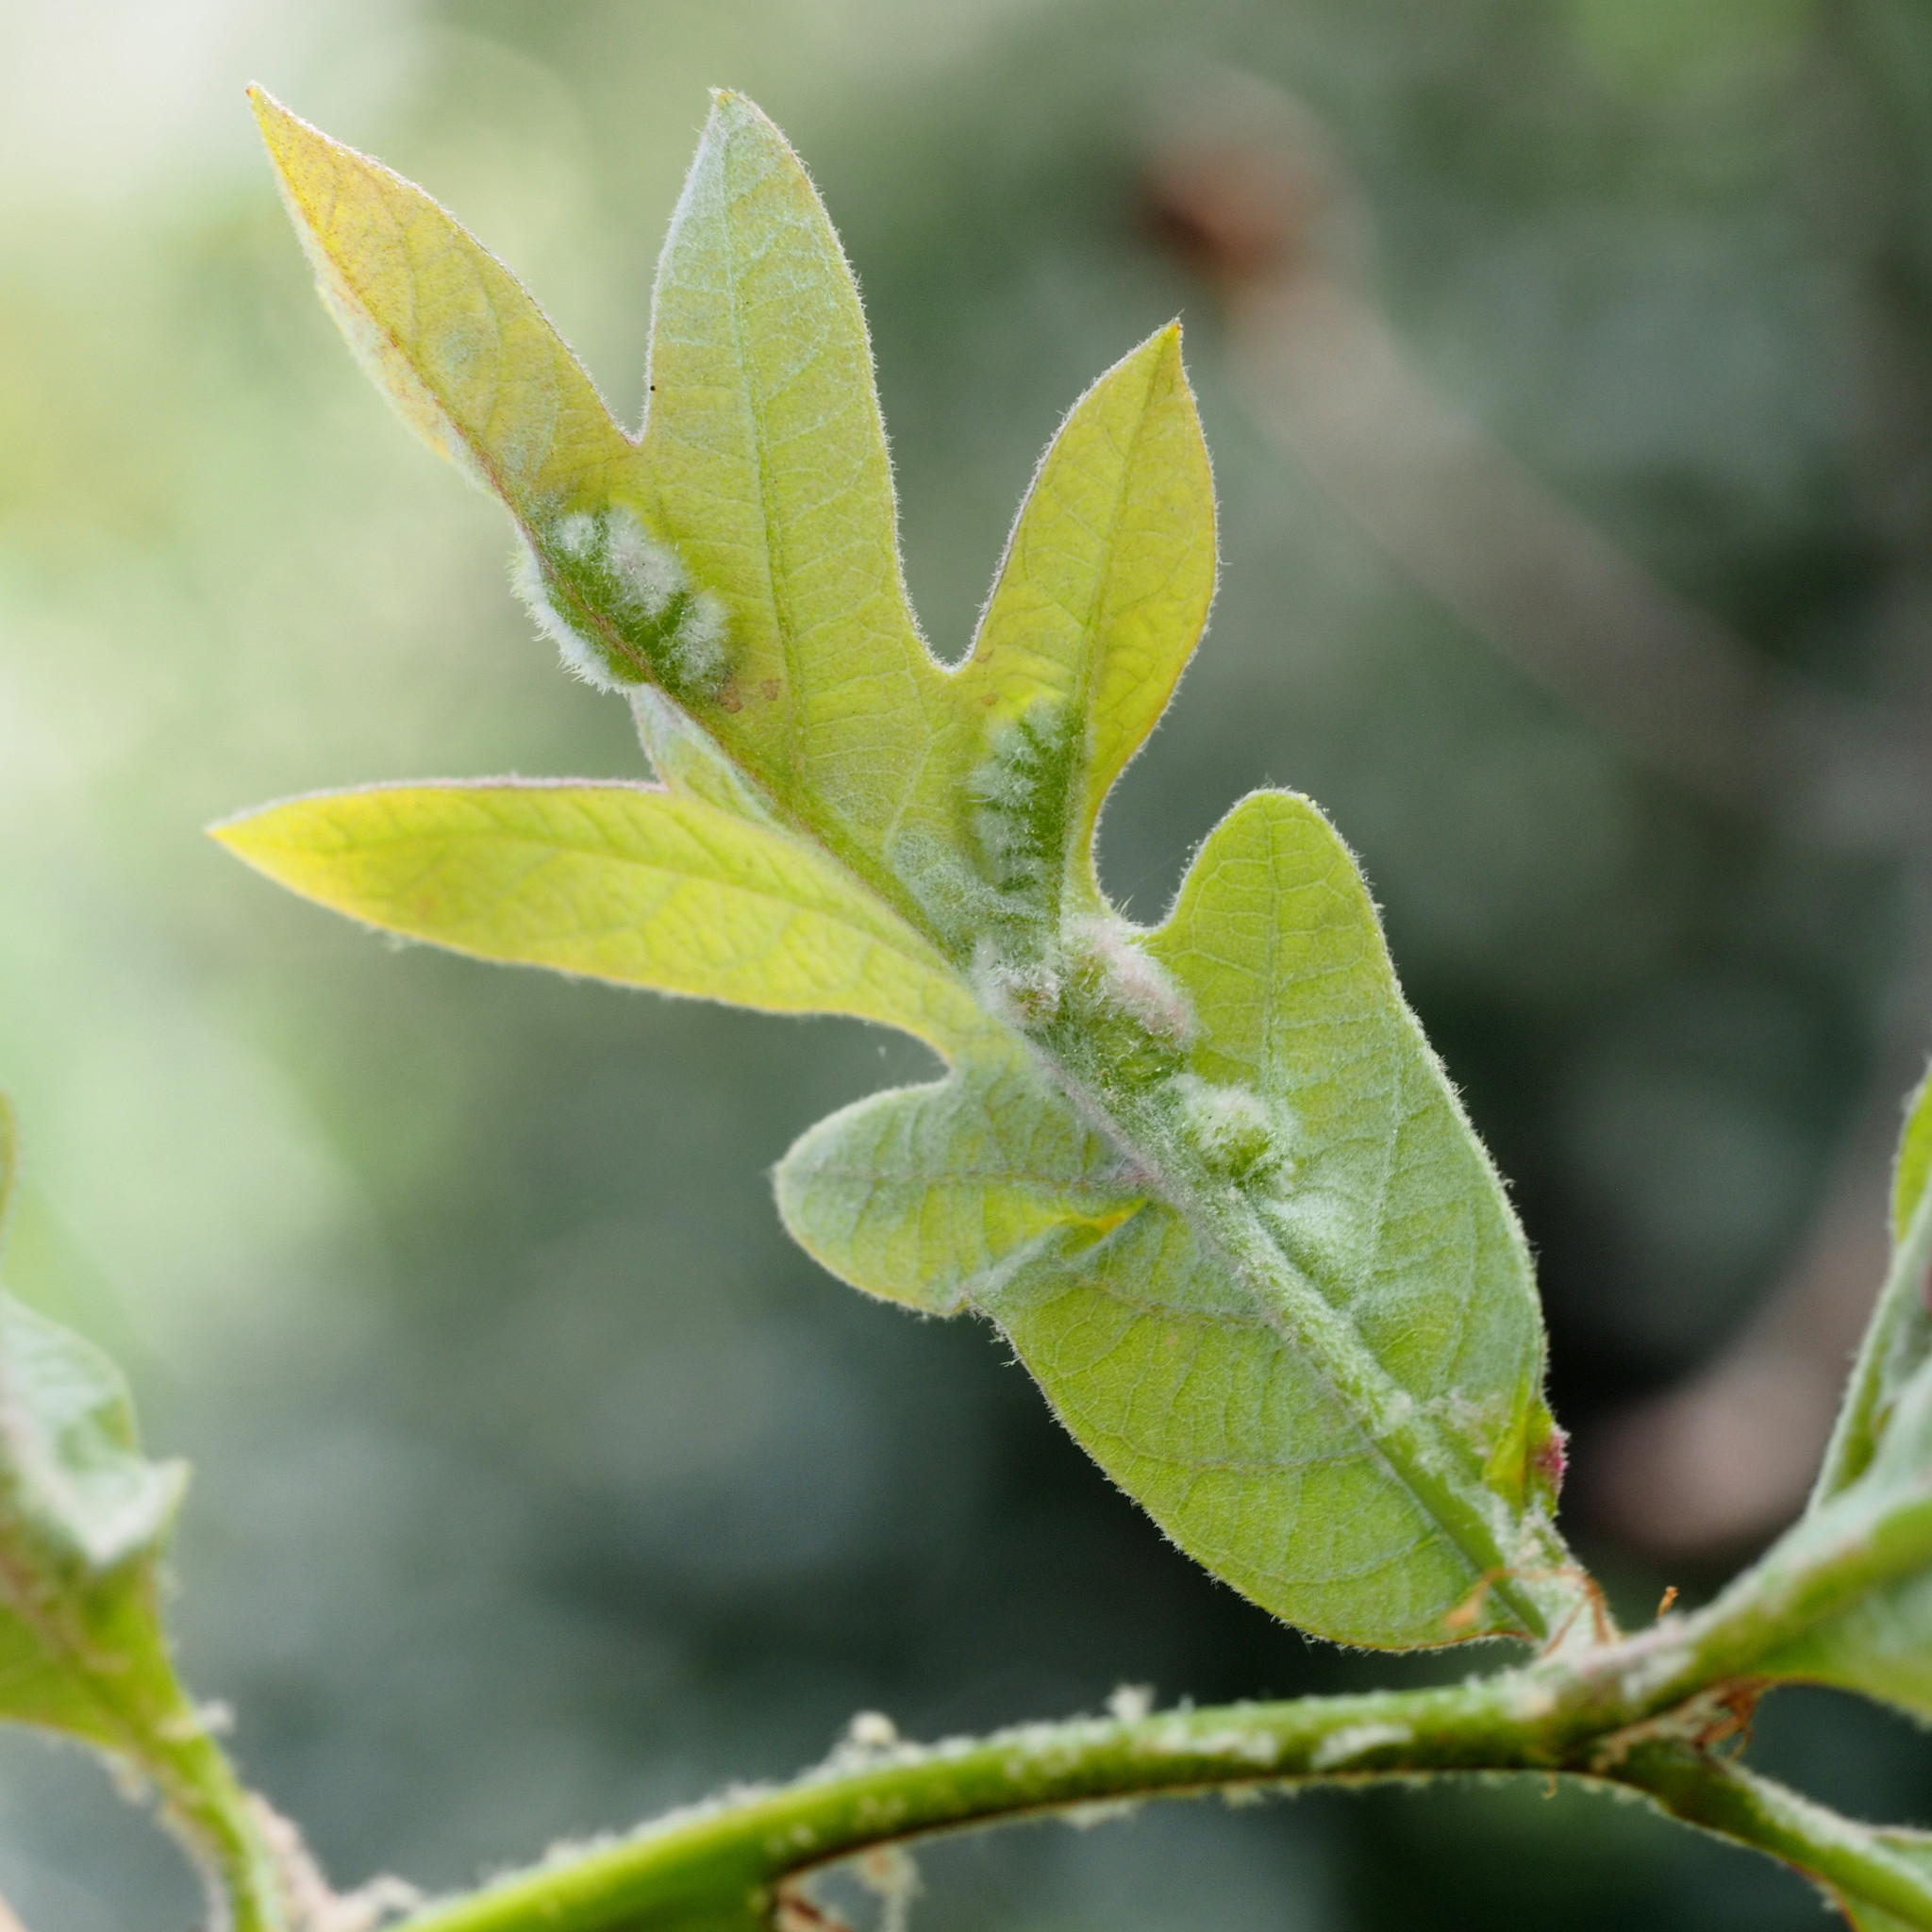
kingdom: Animalia
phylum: Arthropoda
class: Insecta
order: Diptera
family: Cecidomyiidae
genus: Macrodiplosis
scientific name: Macrodiplosis niveipila
